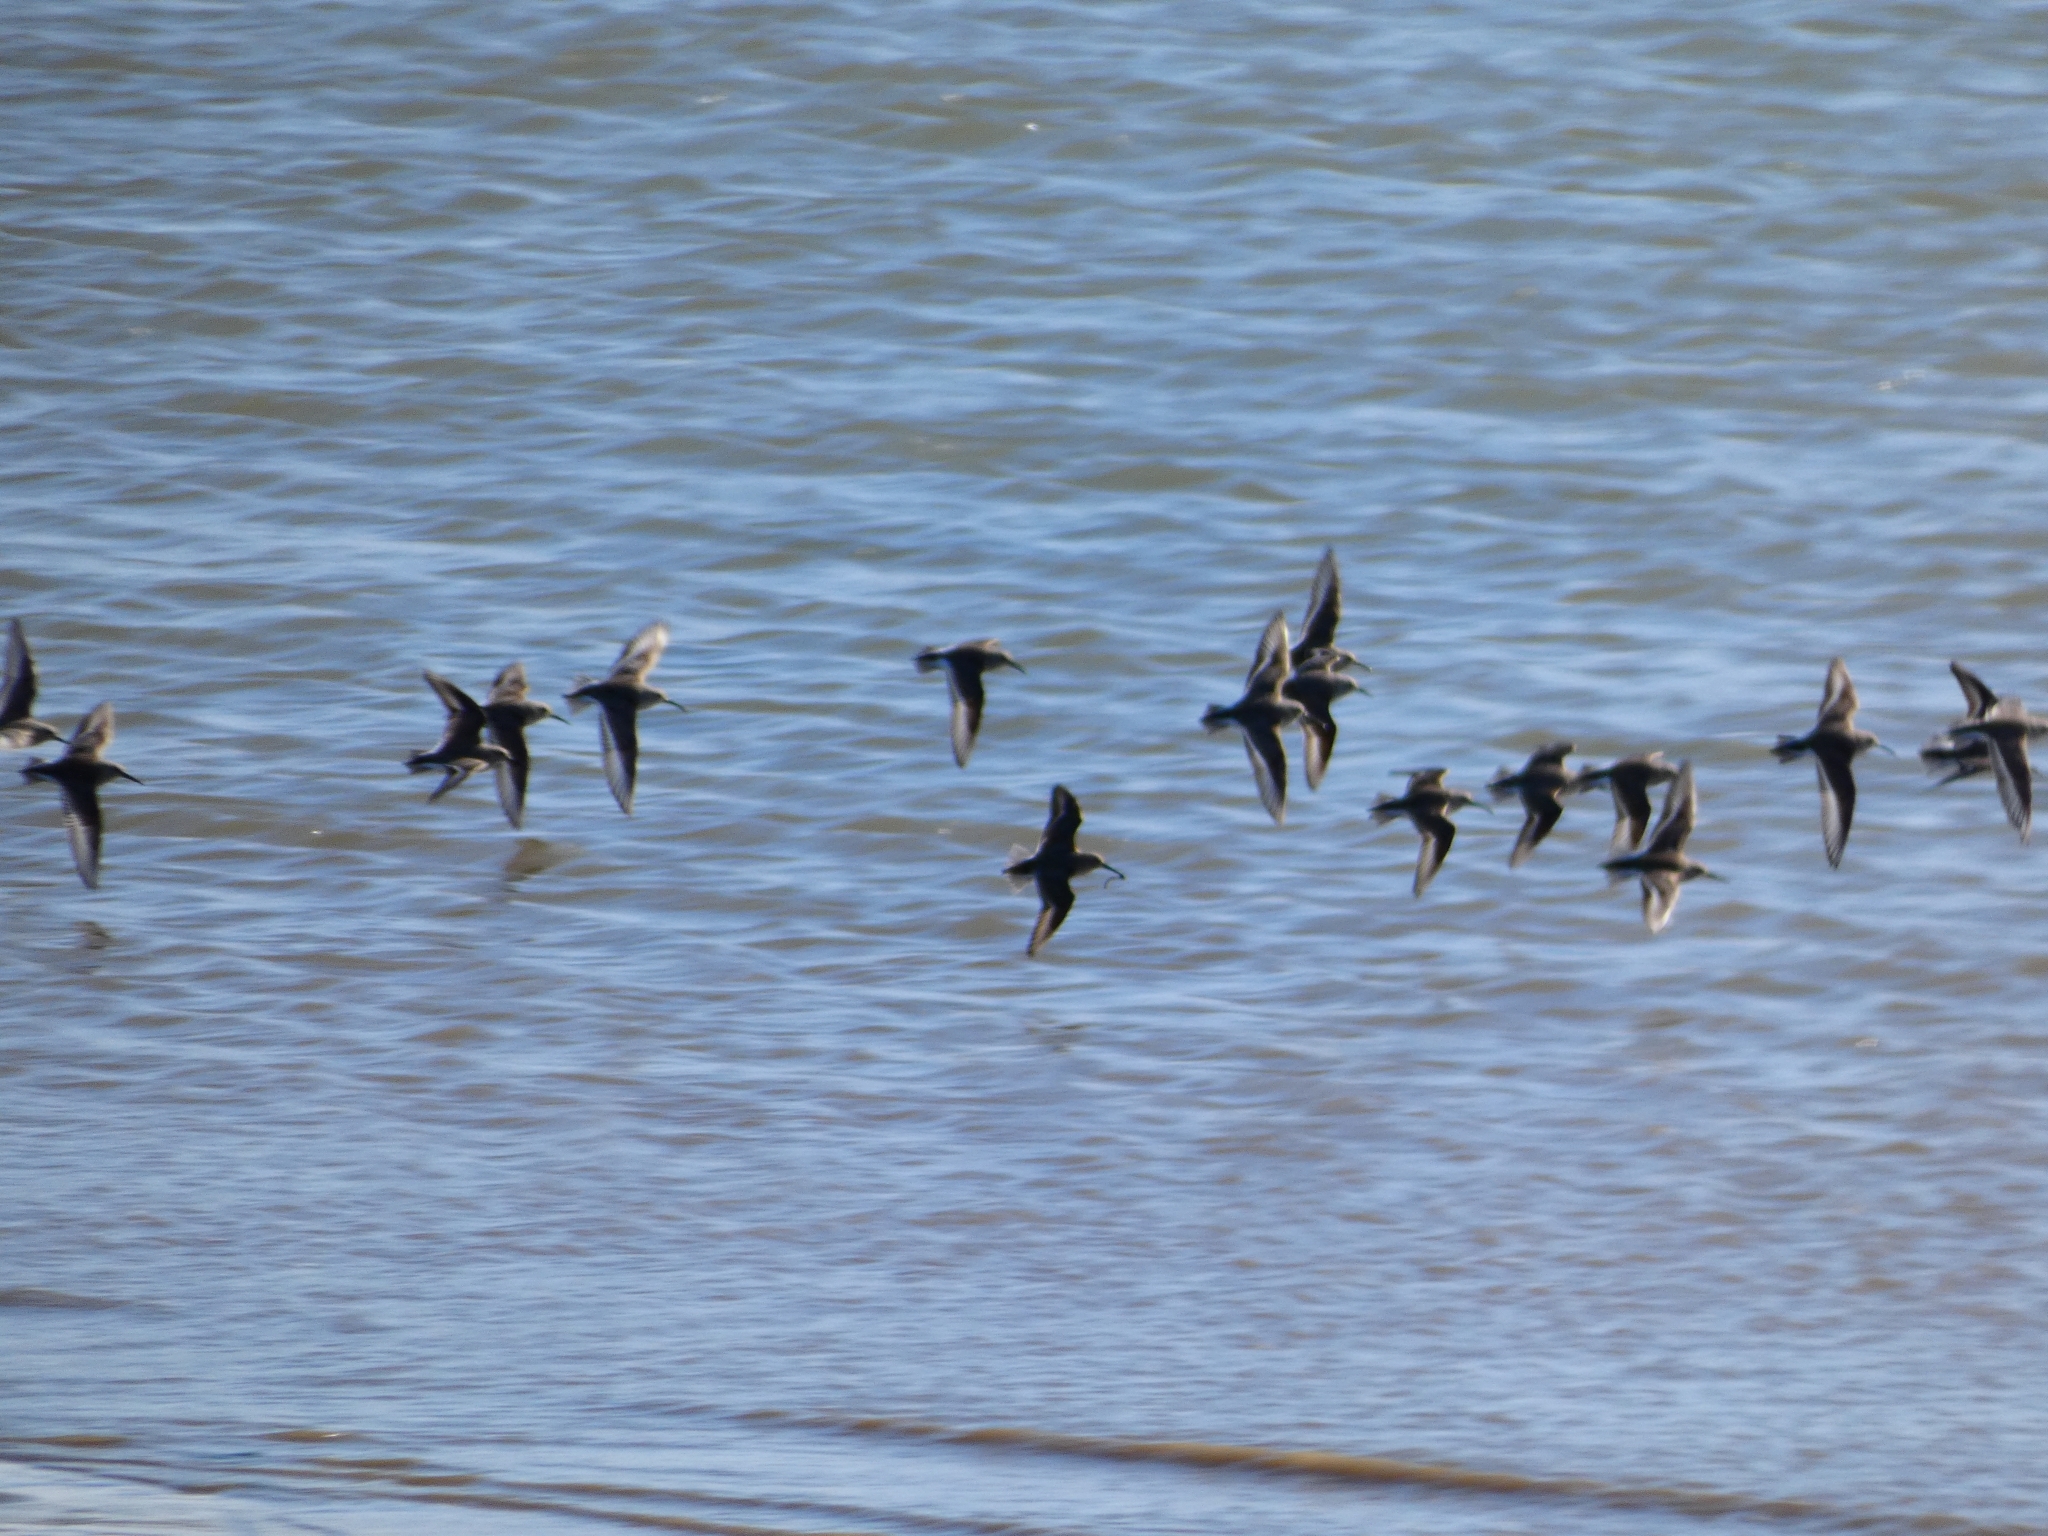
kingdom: Animalia
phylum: Chordata
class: Aves
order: Charadriiformes
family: Scolopacidae
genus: Calidris
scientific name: Calidris alpina
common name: Dunlin
